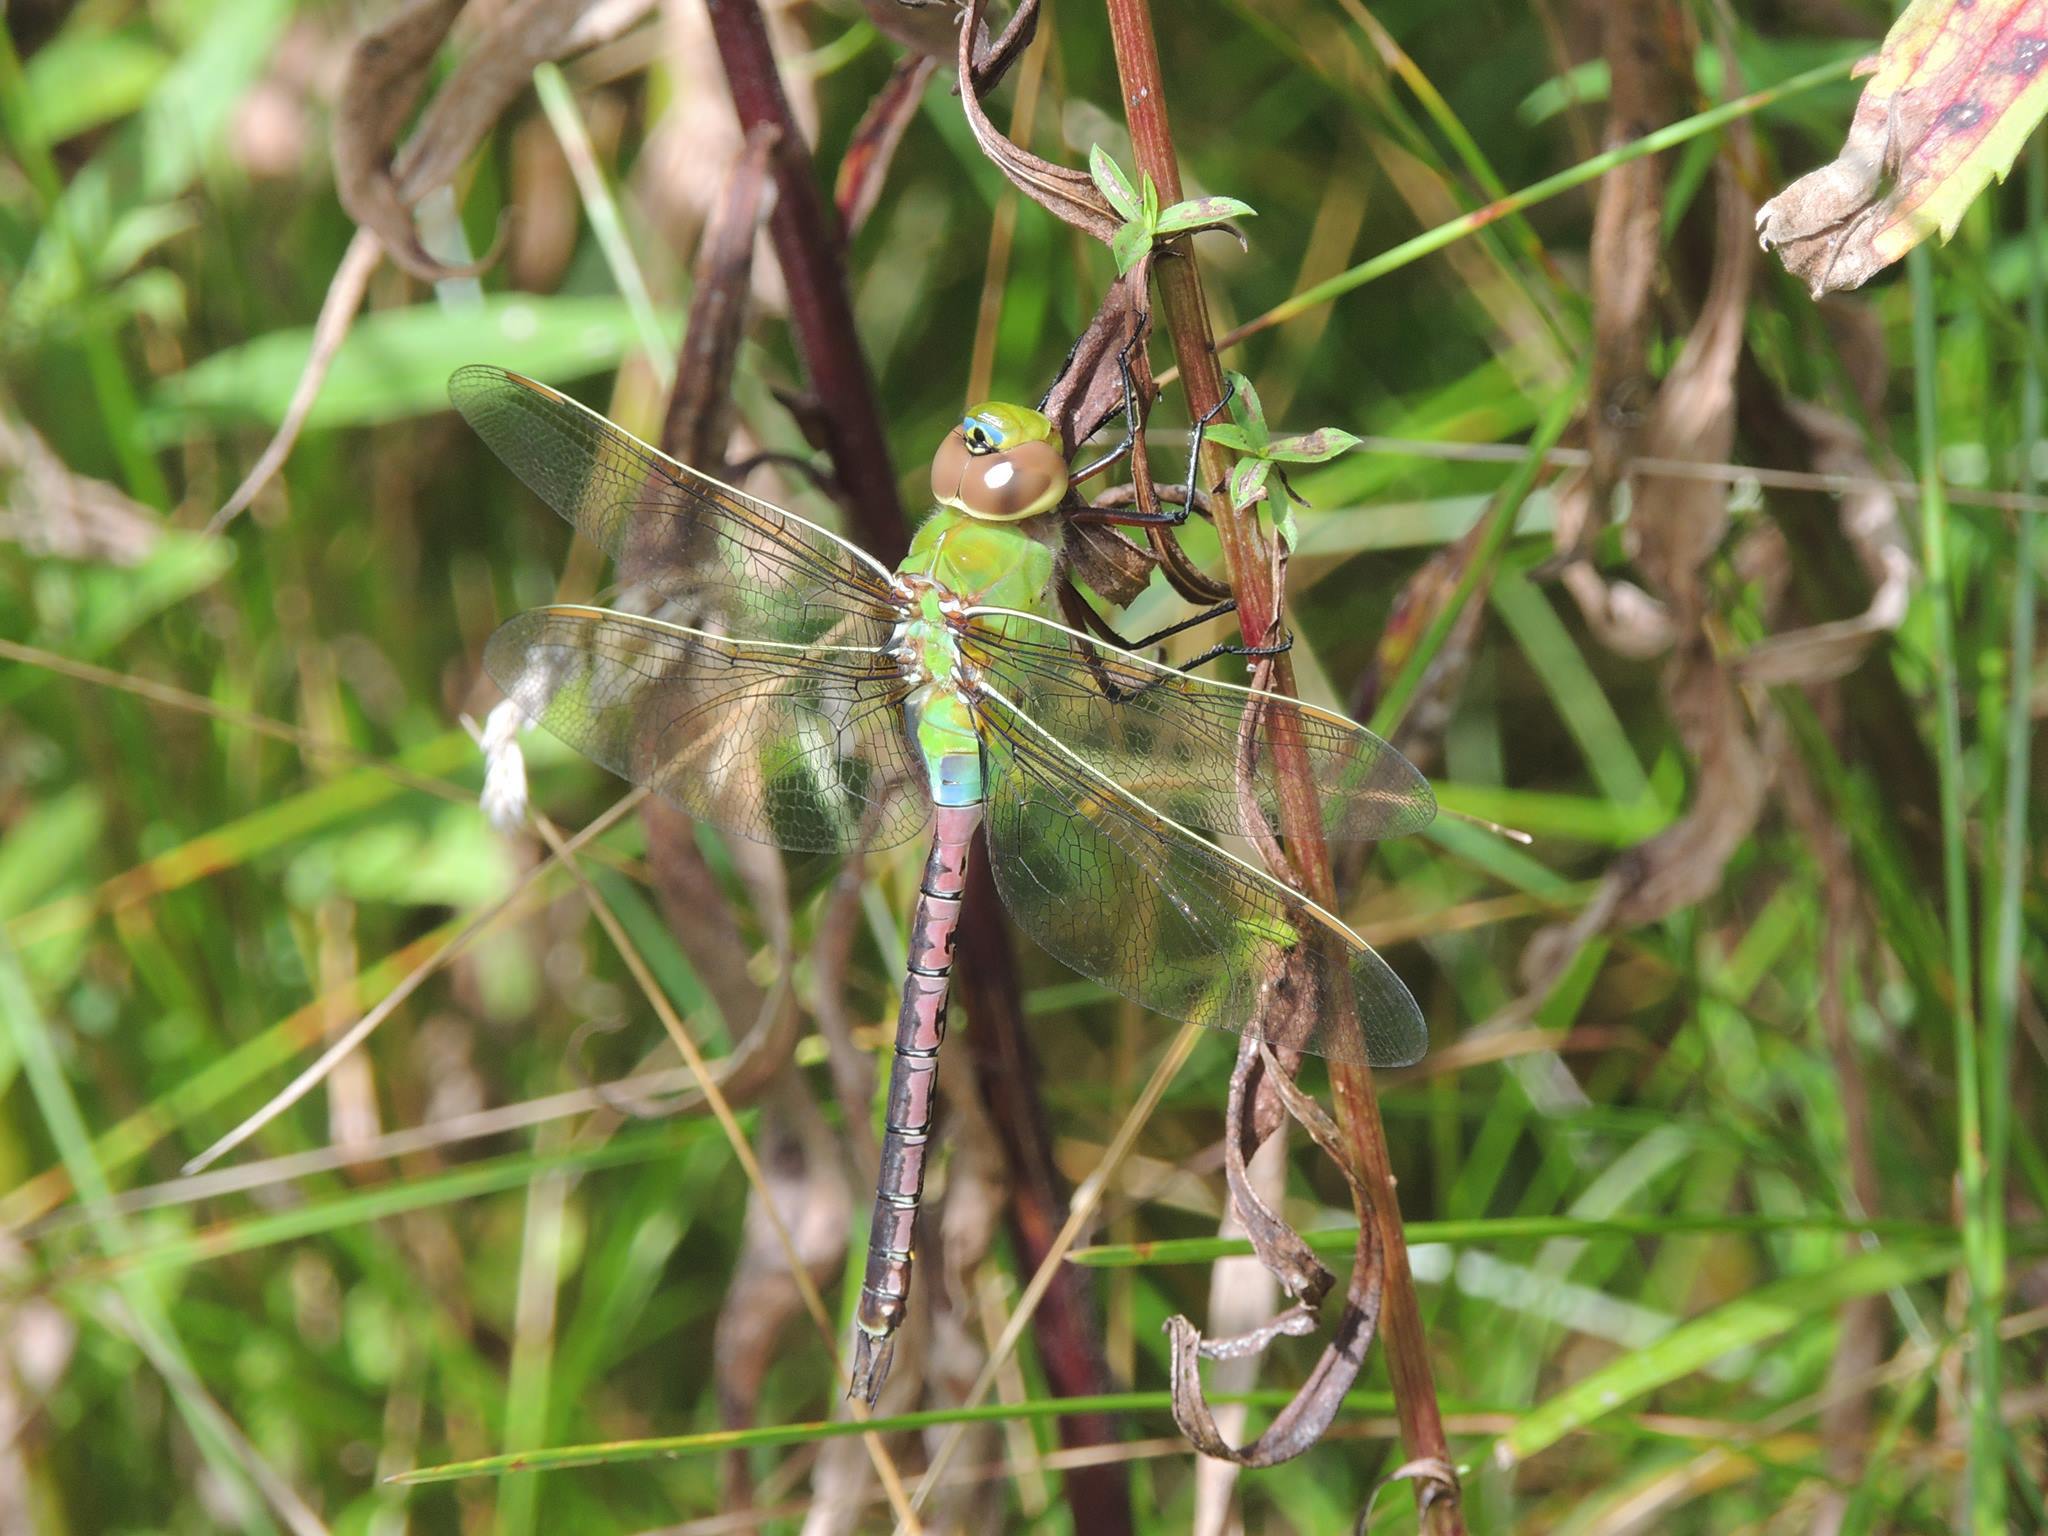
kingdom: Animalia
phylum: Arthropoda
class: Insecta
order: Odonata
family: Aeshnidae
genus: Anax
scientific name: Anax junius
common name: Common green darner
